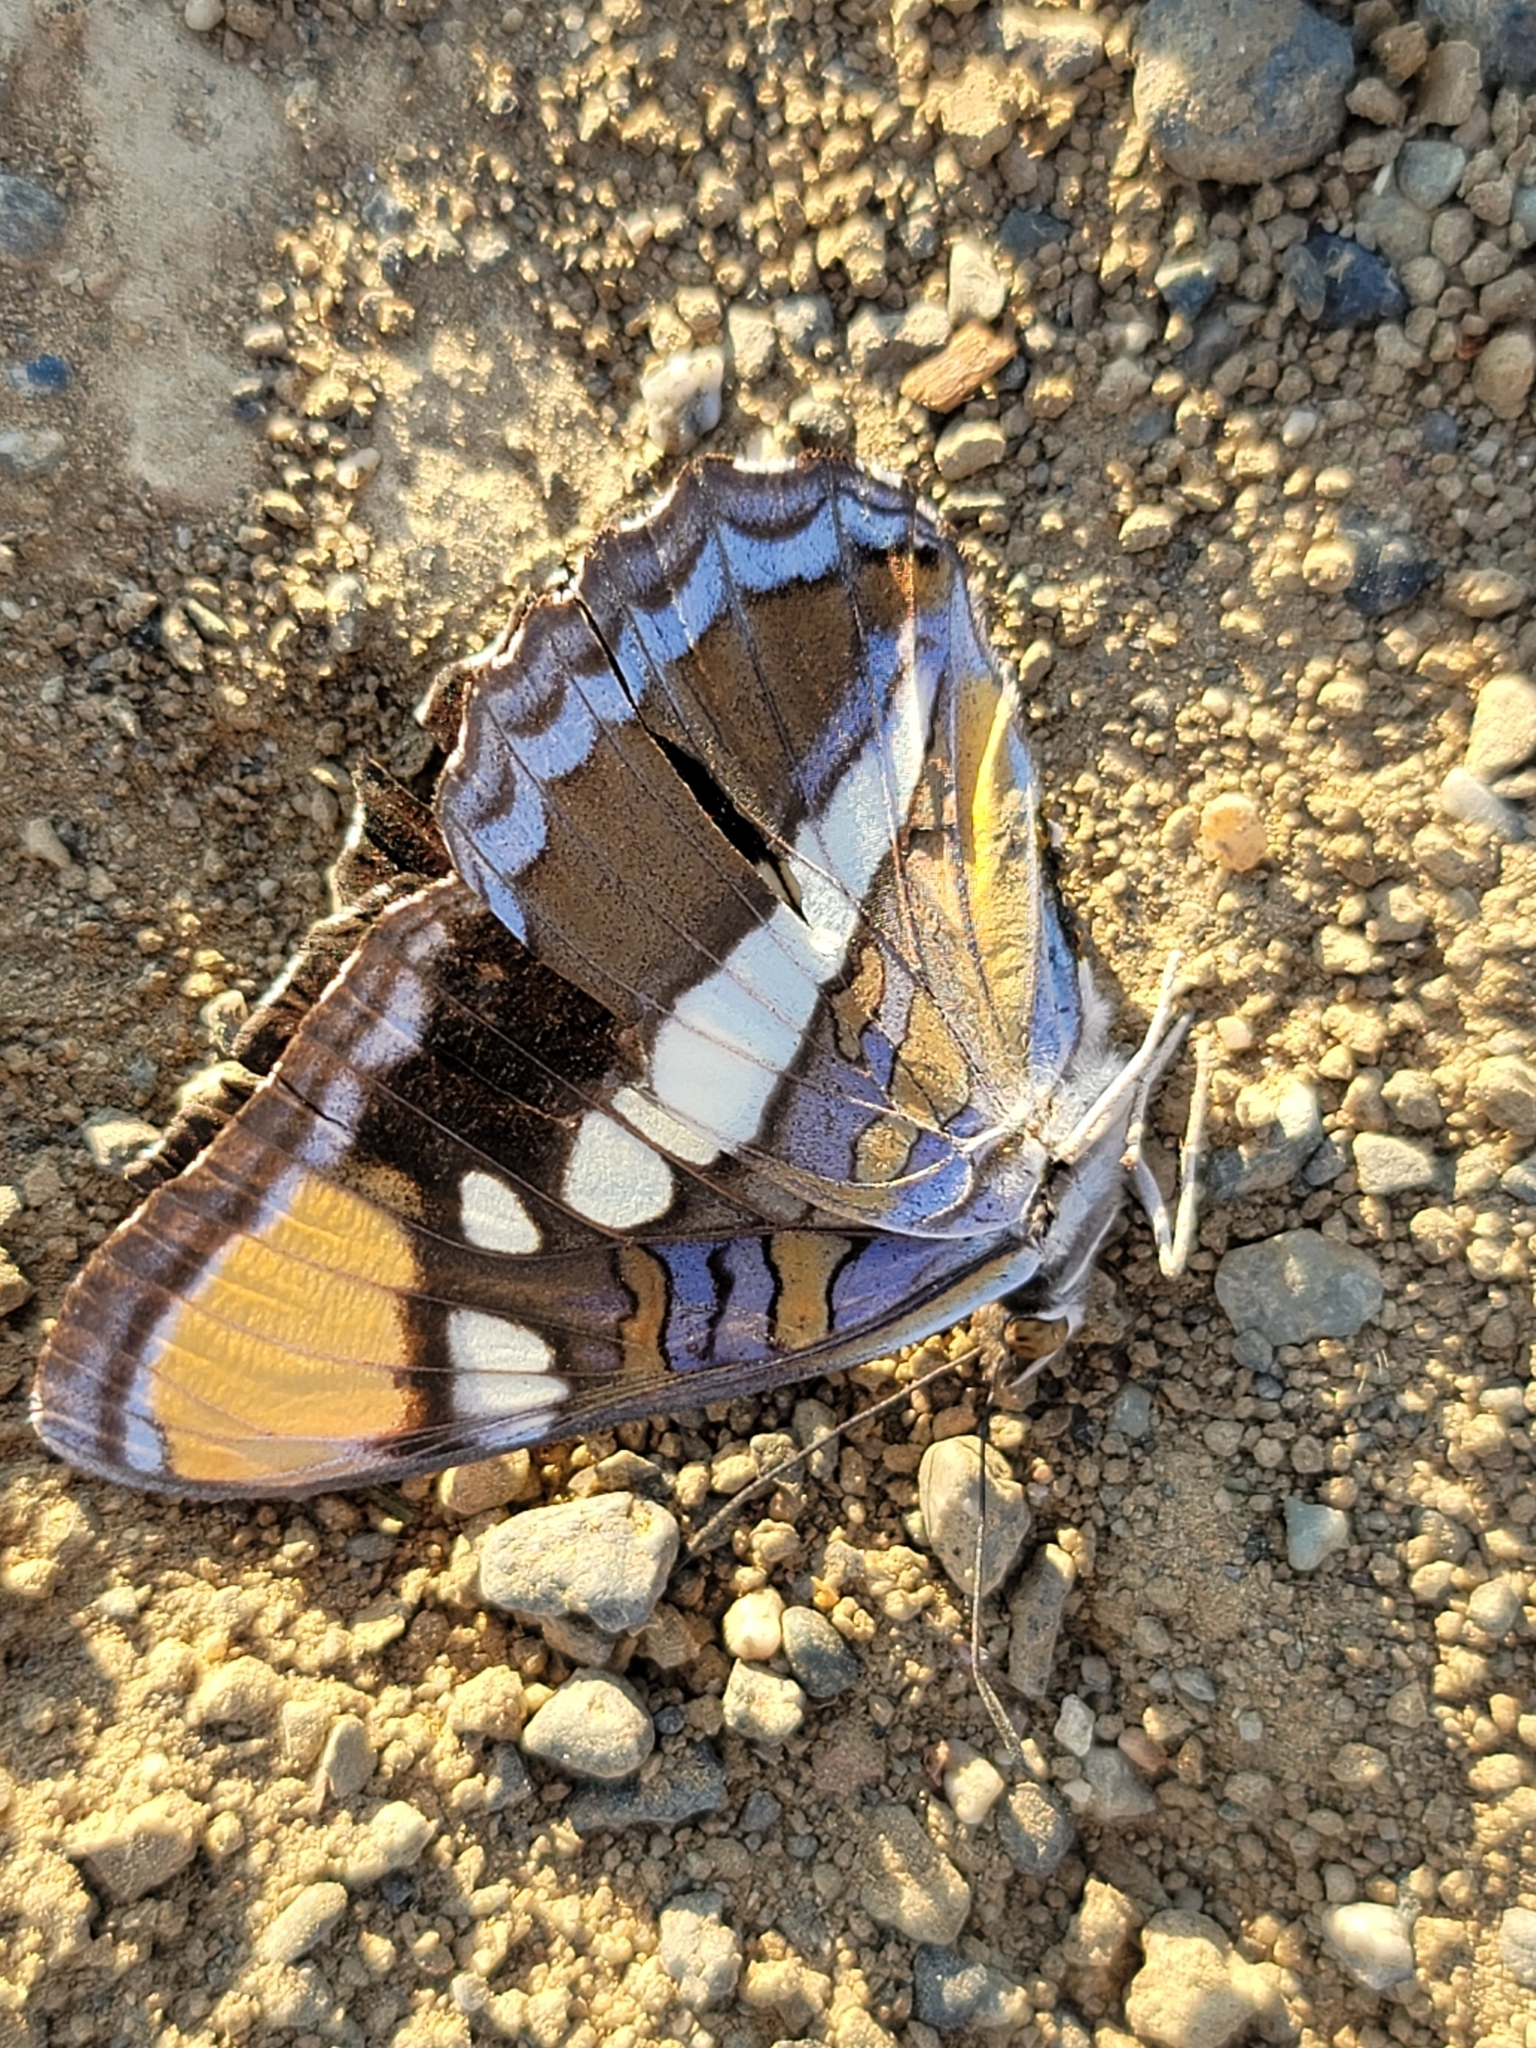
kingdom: Animalia
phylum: Arthropoda
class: Insecta
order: Lepidoptera
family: Nymphalidae
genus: Limenitis
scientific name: Limenitis bredowii
